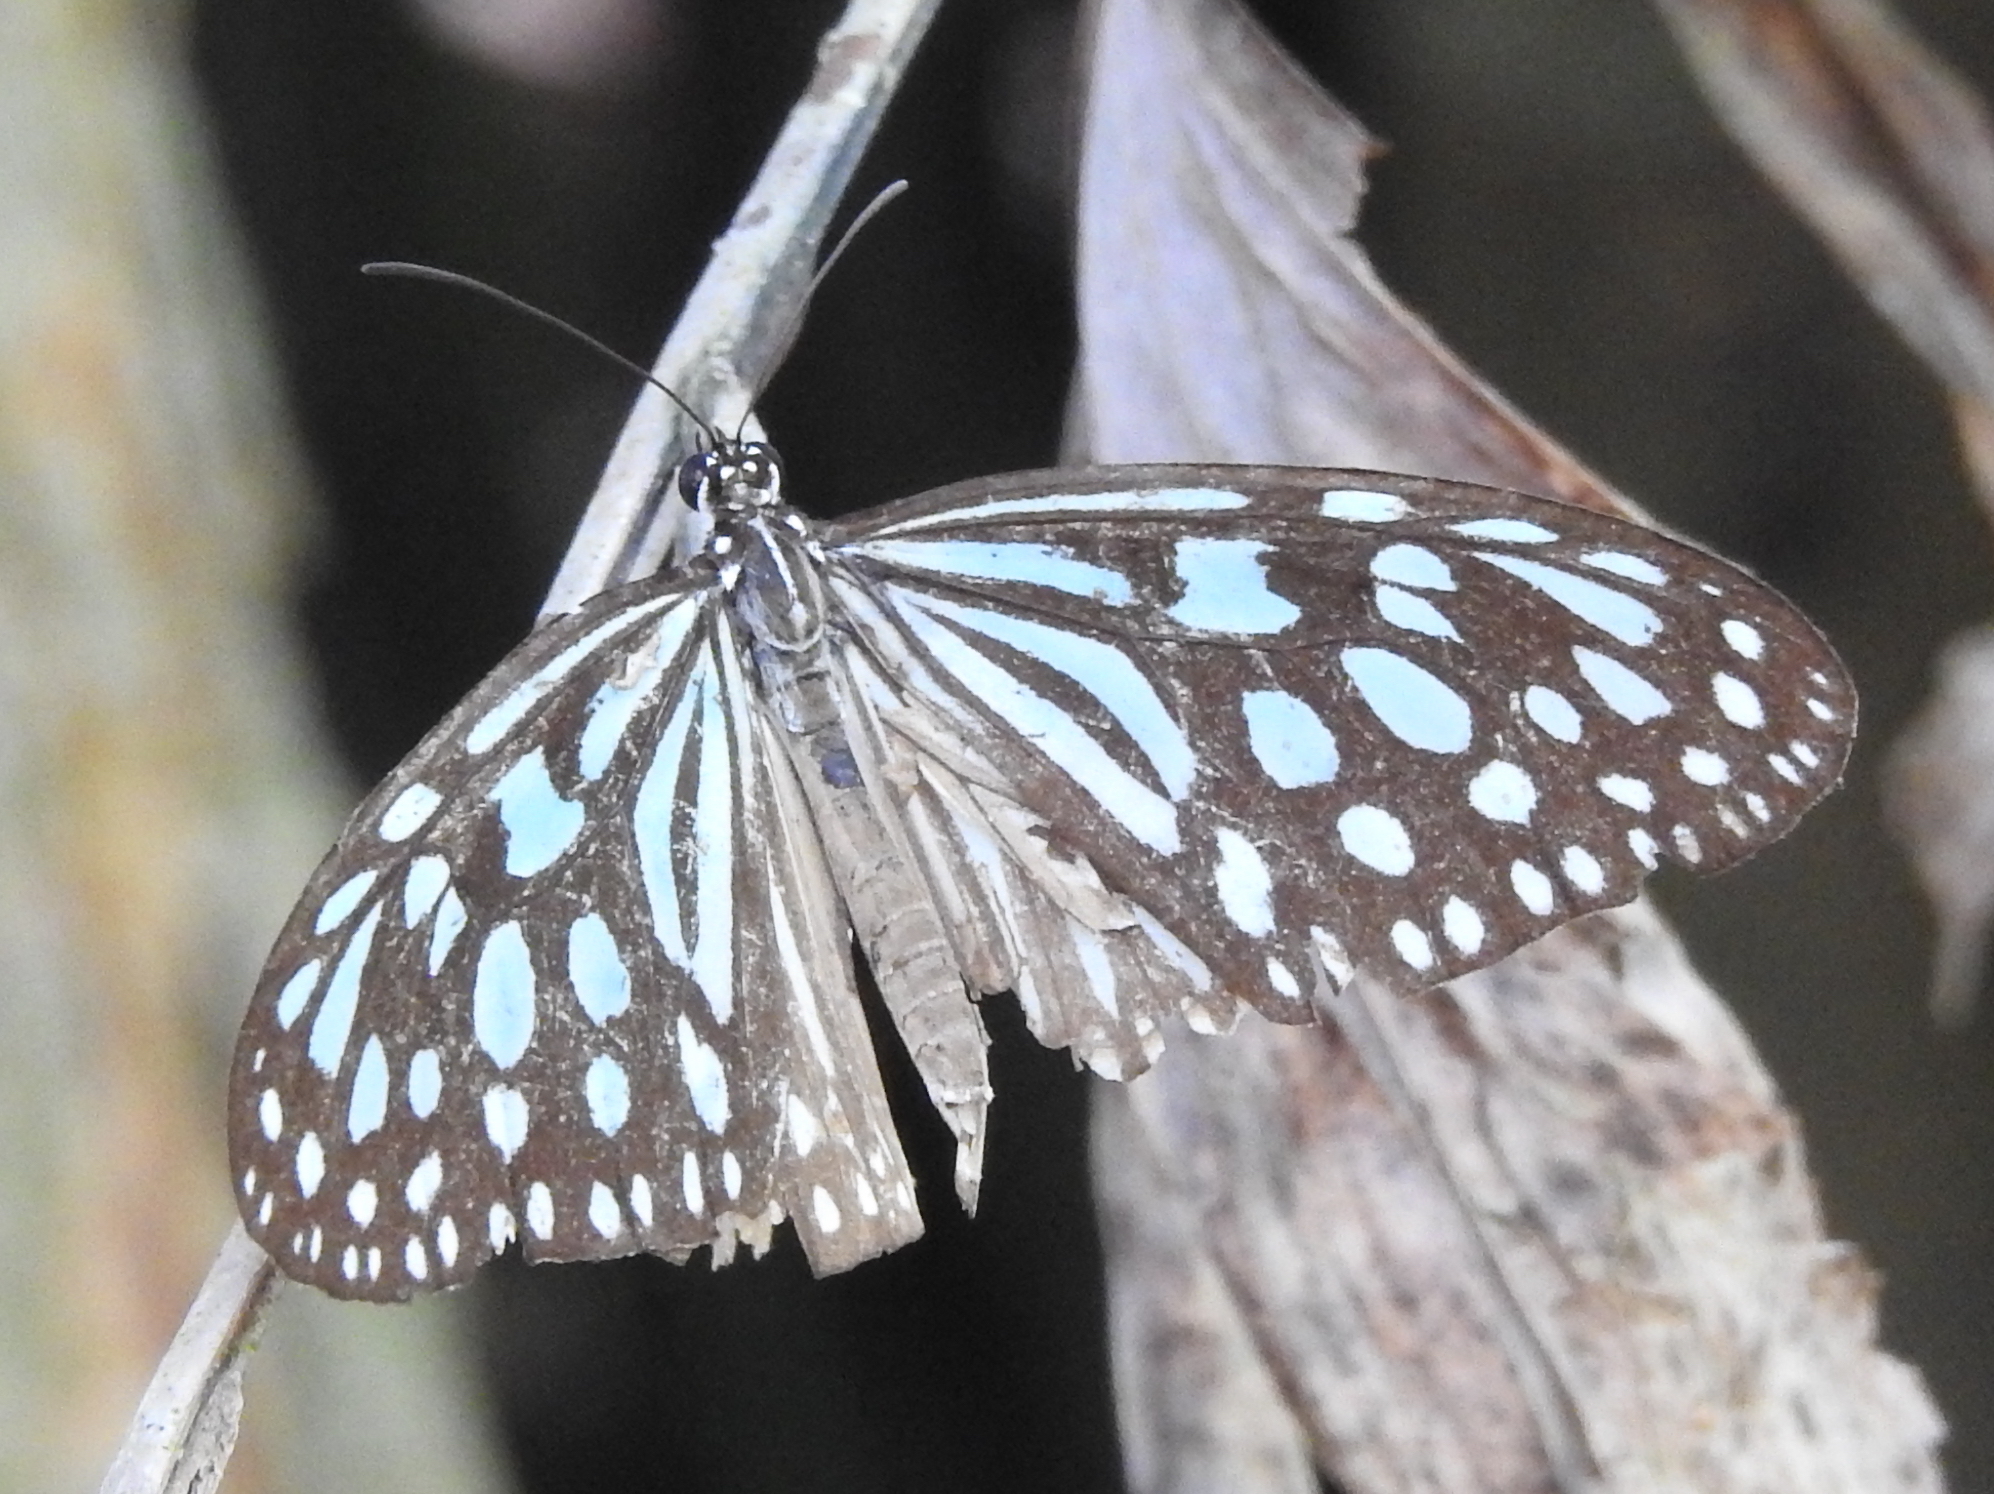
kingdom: Animalia
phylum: Arthropoda
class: Insecta
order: Lepidoptera
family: Nymphalidae
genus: Ideopsis
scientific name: Ideopsis similis
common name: Ceylon blue glassy tiger
